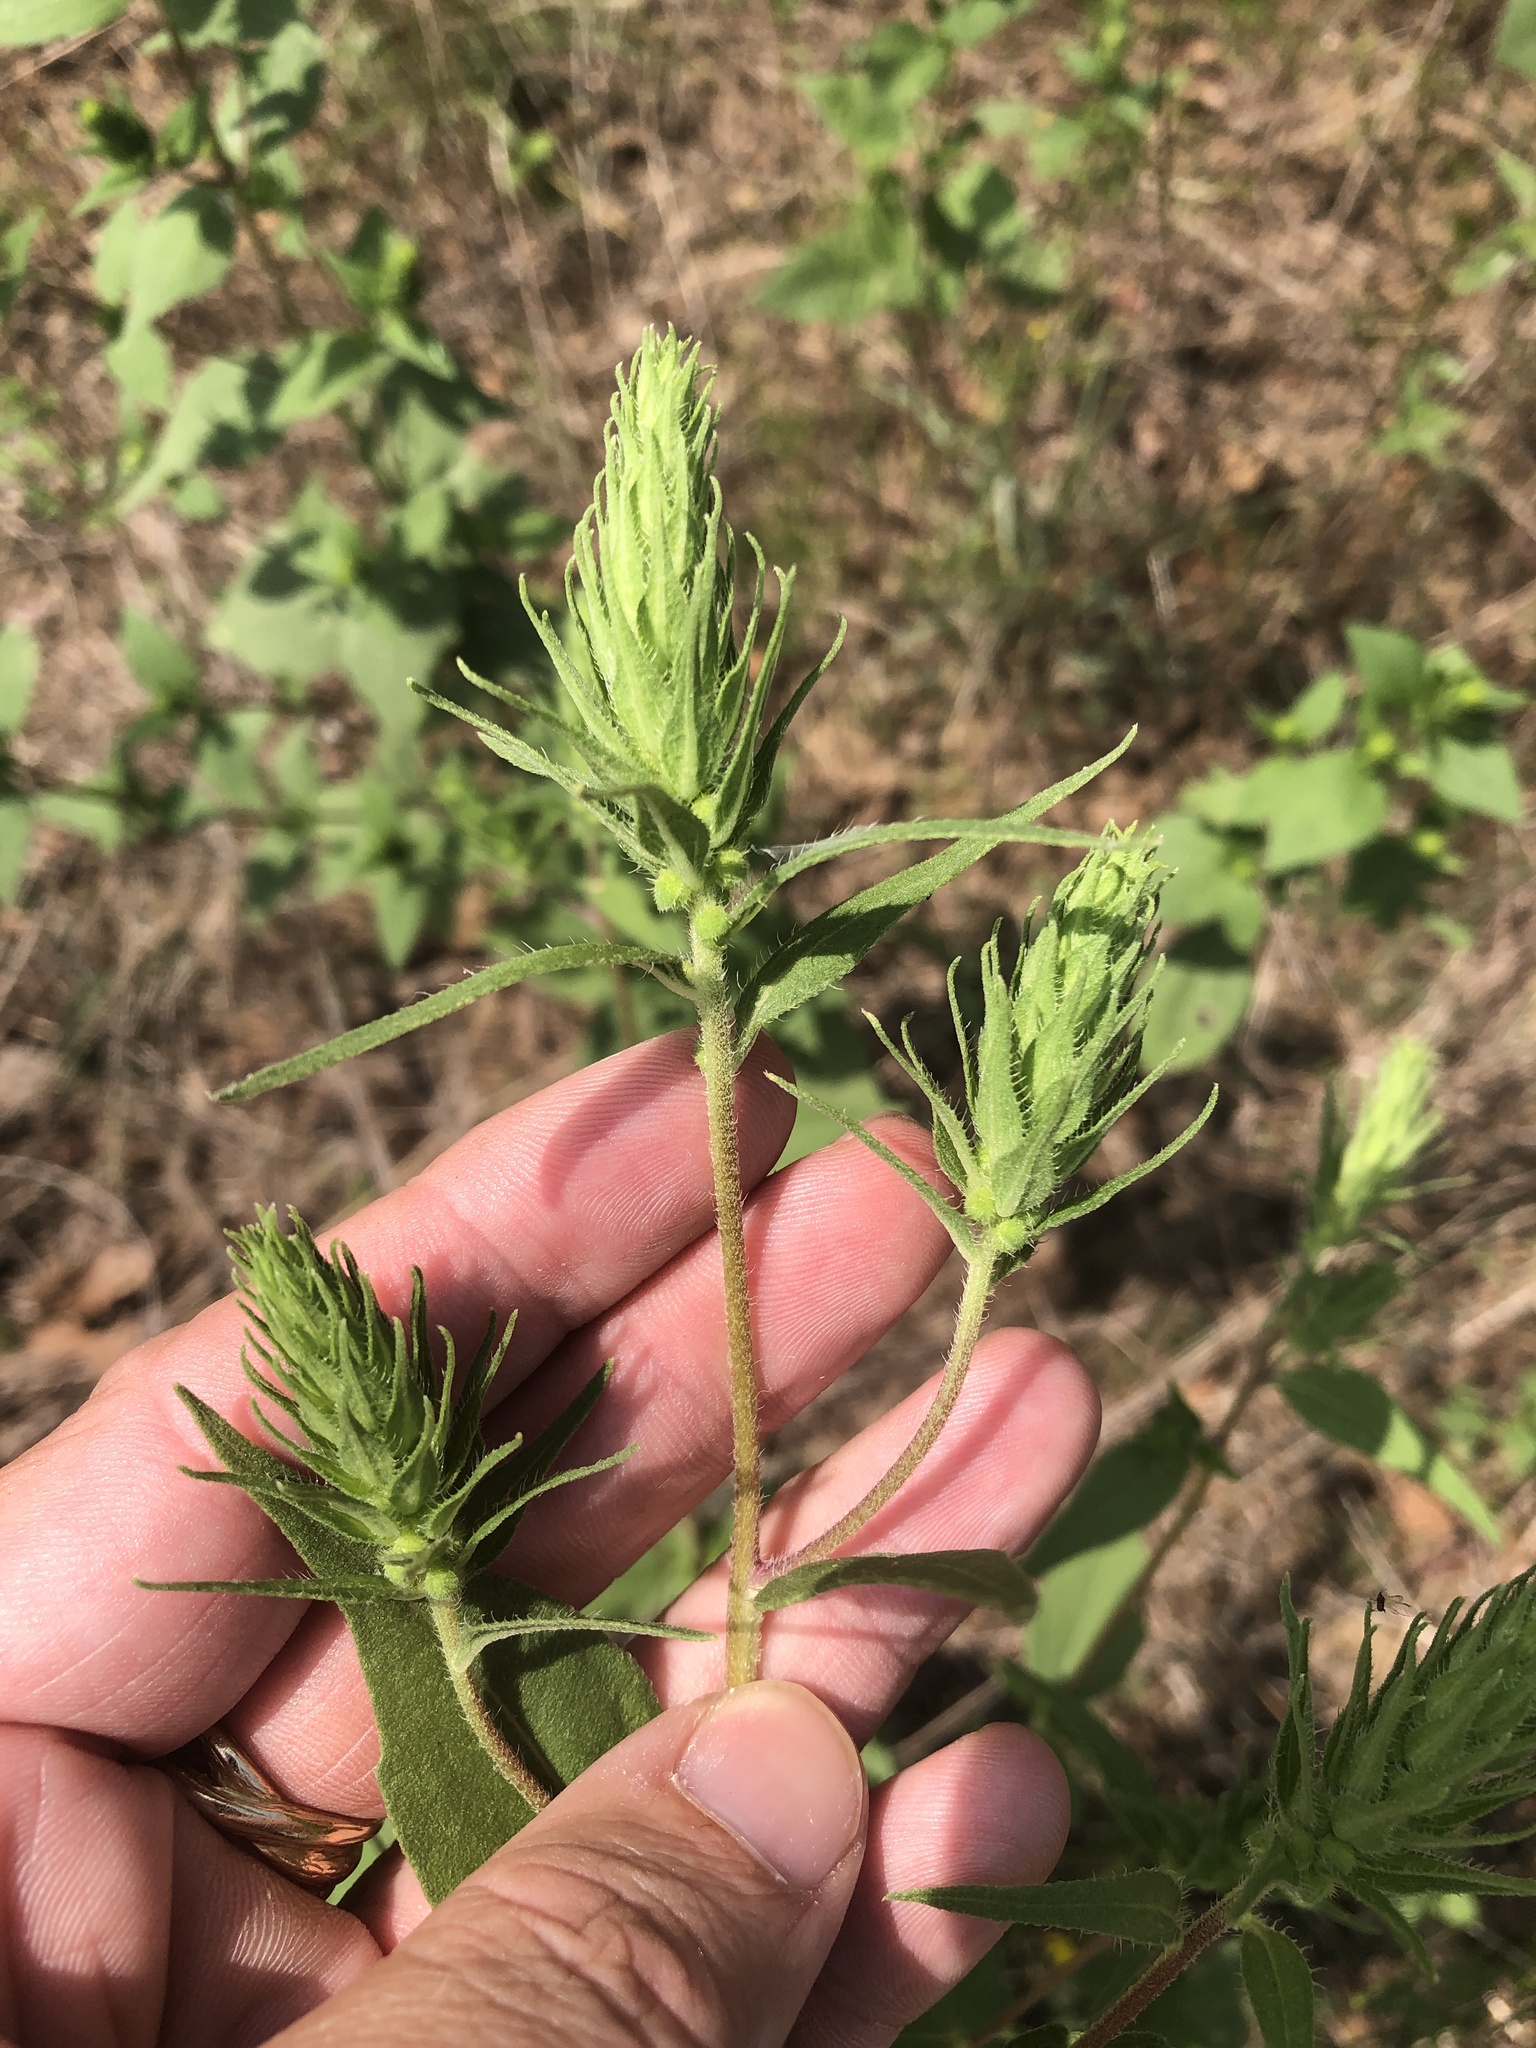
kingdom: Plantae
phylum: Tracheophyta
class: Magnoliopsida
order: Asterales
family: Asteraceae
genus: Iva
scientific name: Iva annua
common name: Marsh-elder
